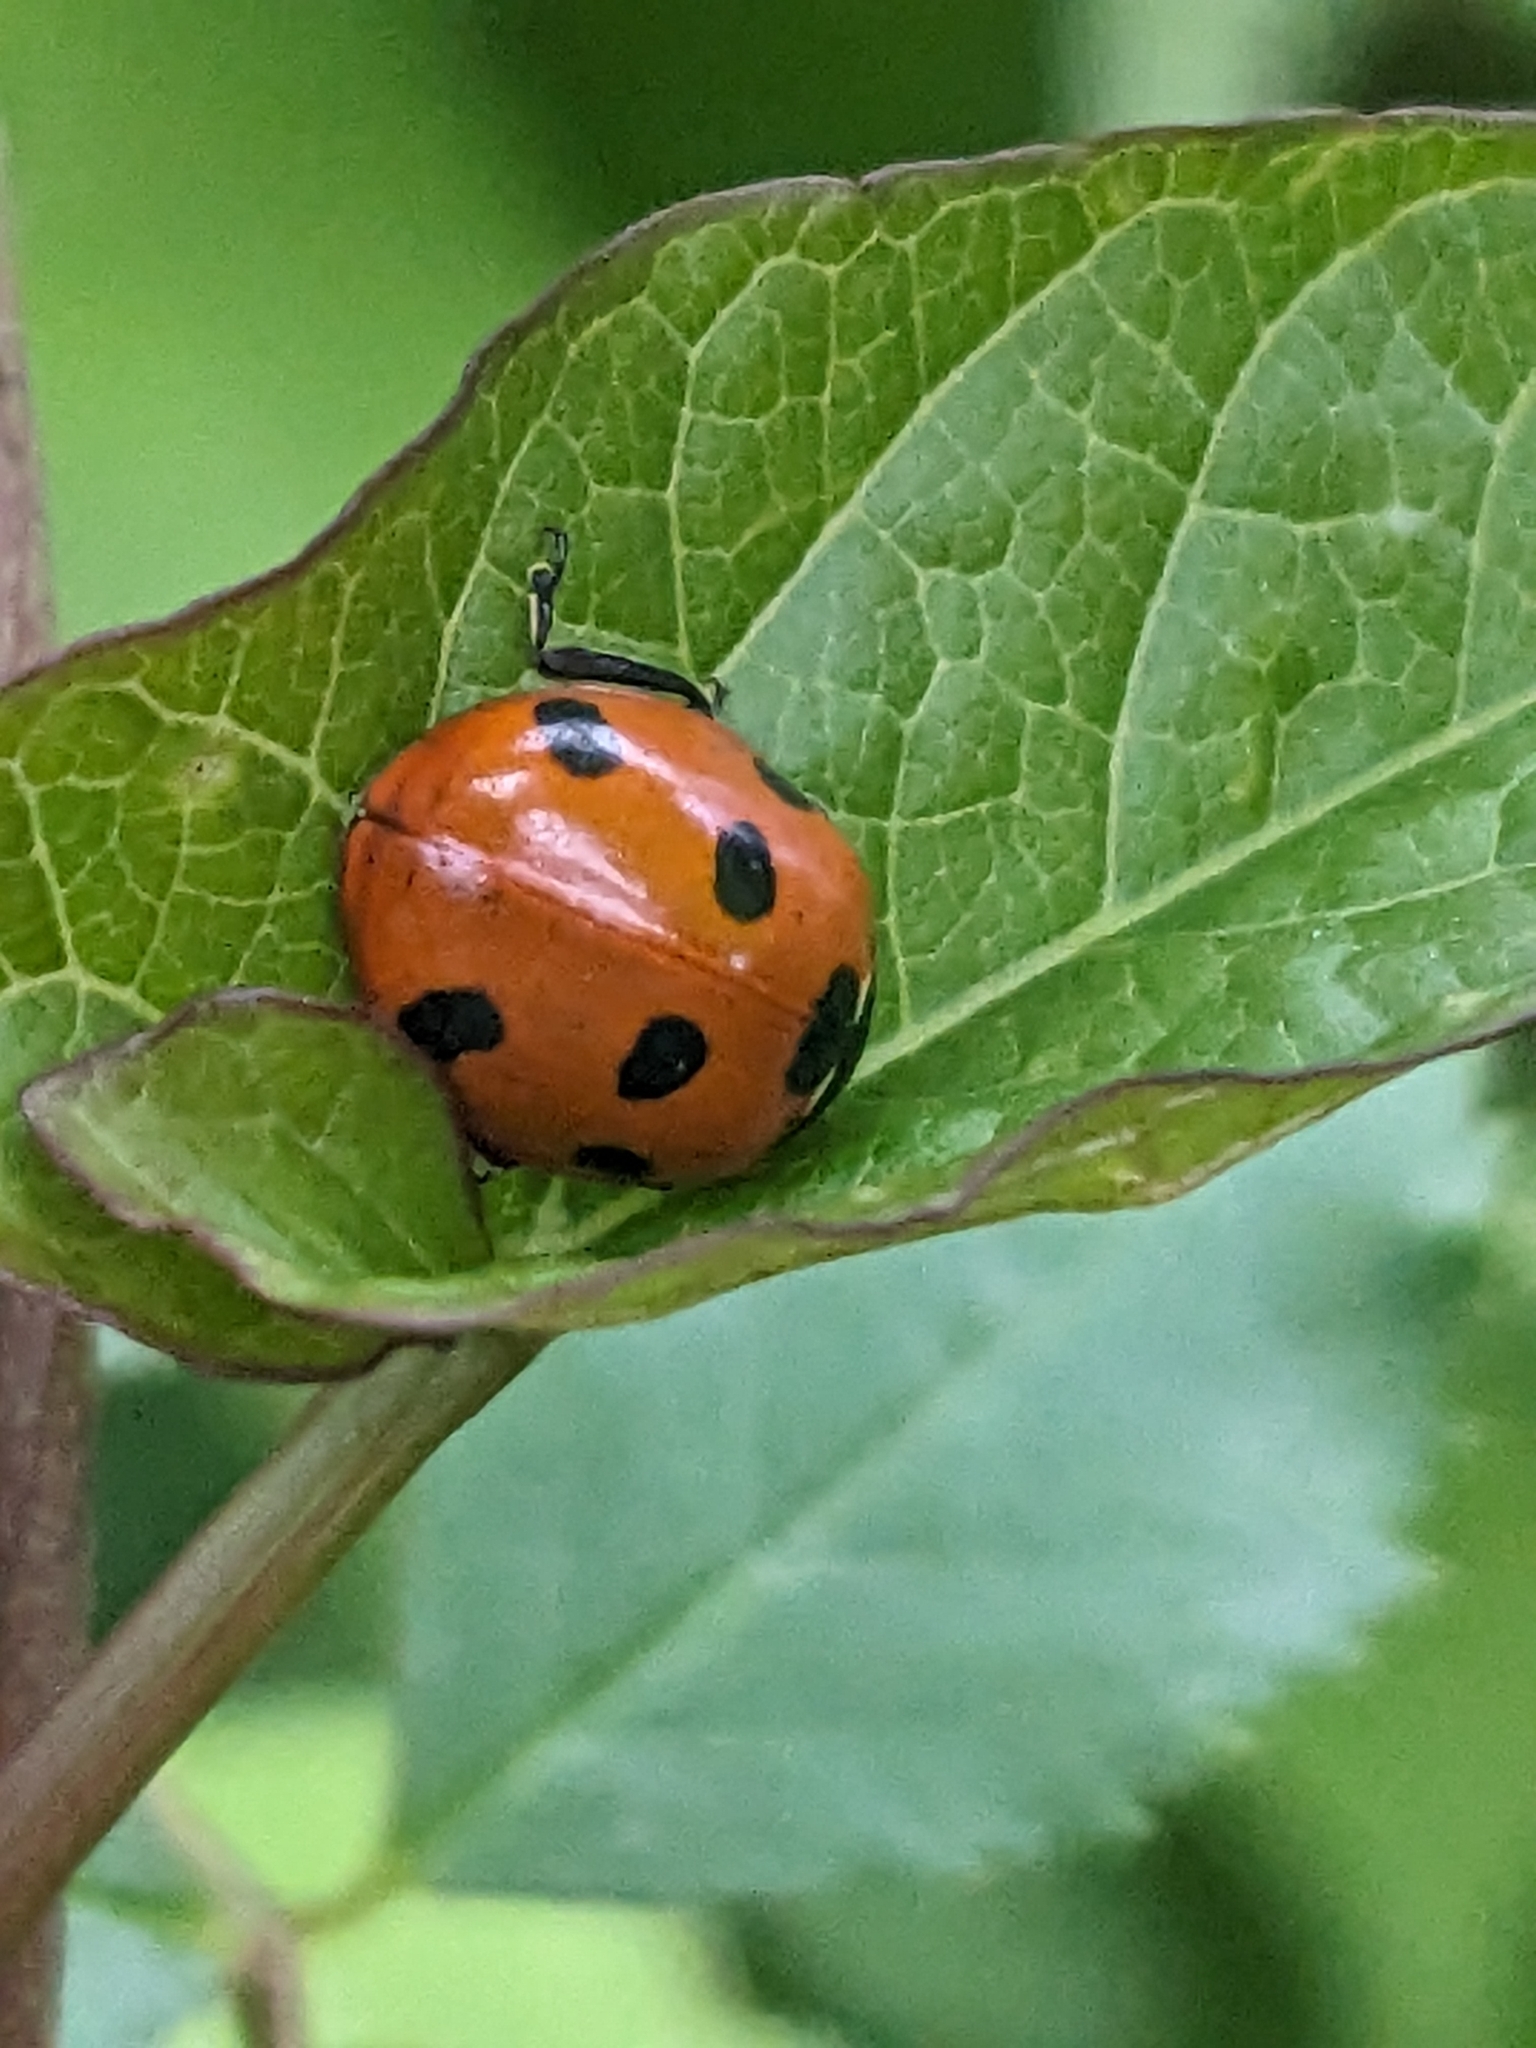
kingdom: Animalia
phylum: Arthropoda
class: Insecta
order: Coleoptera
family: Coccinellidae
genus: Coccinella
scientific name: Coccinella septempunctata
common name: Sevenspotted lady beetle
